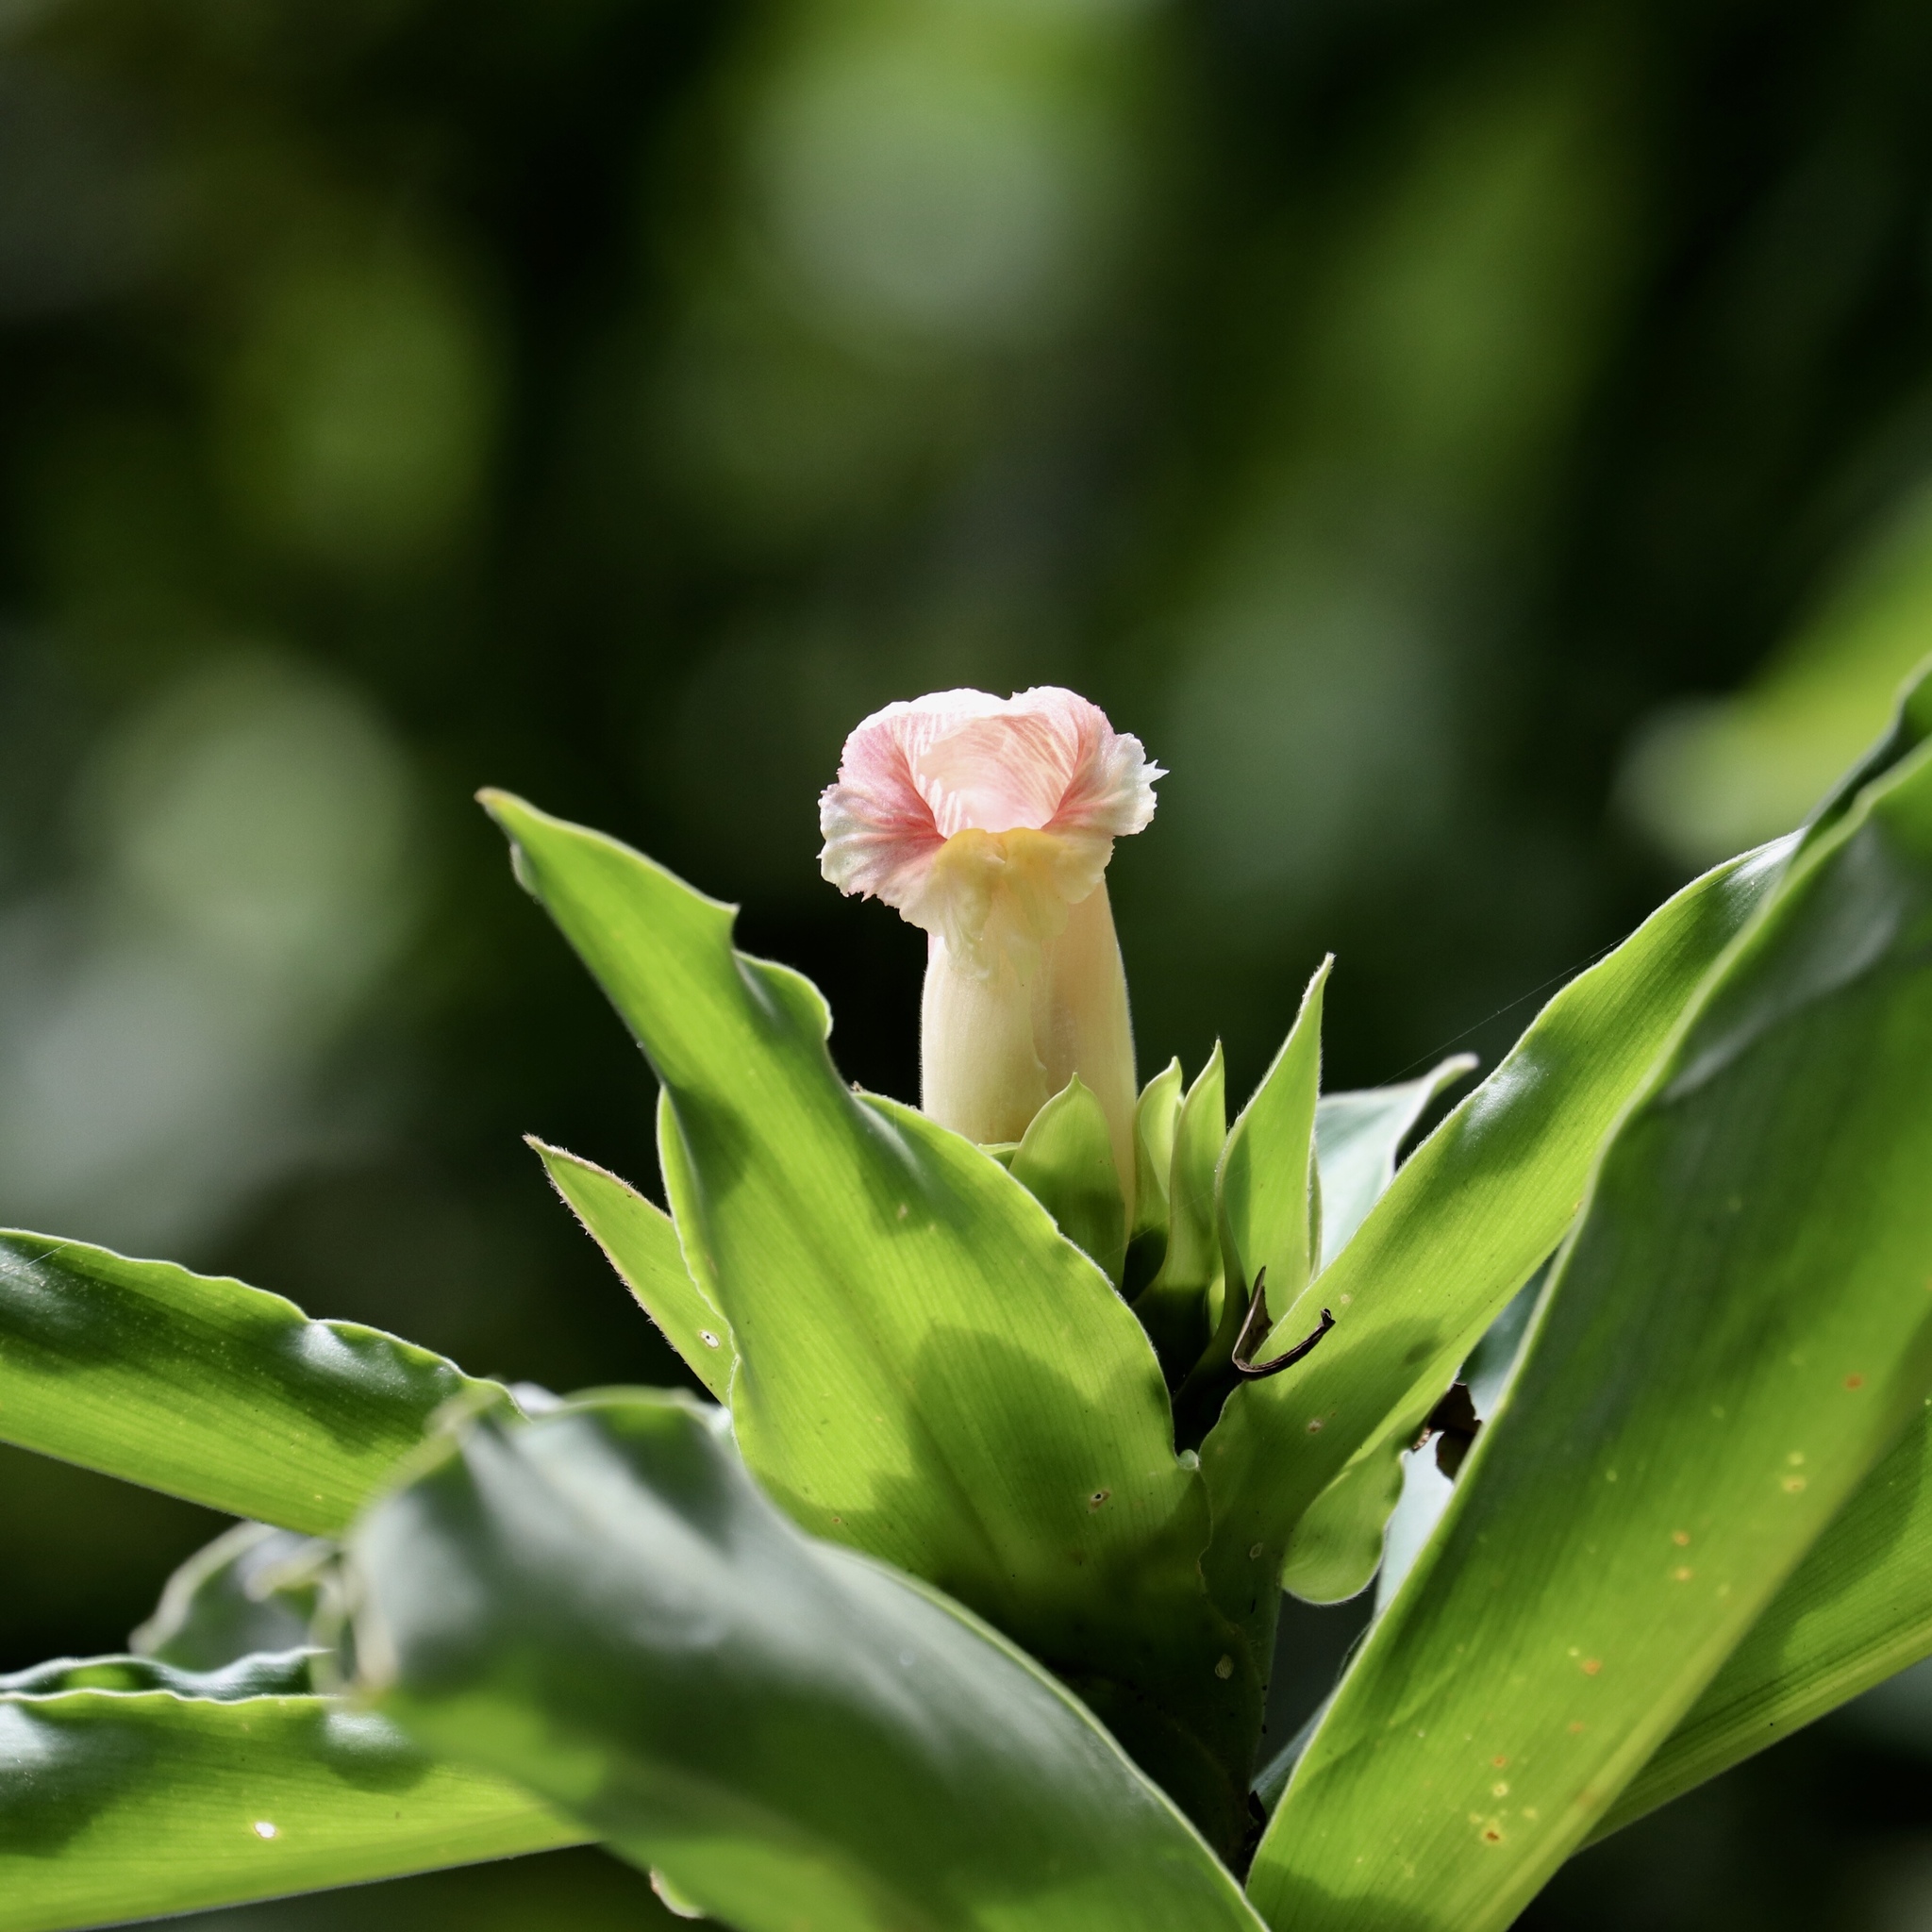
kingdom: Plantae
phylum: Tracheophyta
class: Liliopsida
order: Zingiberales
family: Costaceae
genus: Costus
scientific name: Costus guanaiensis
